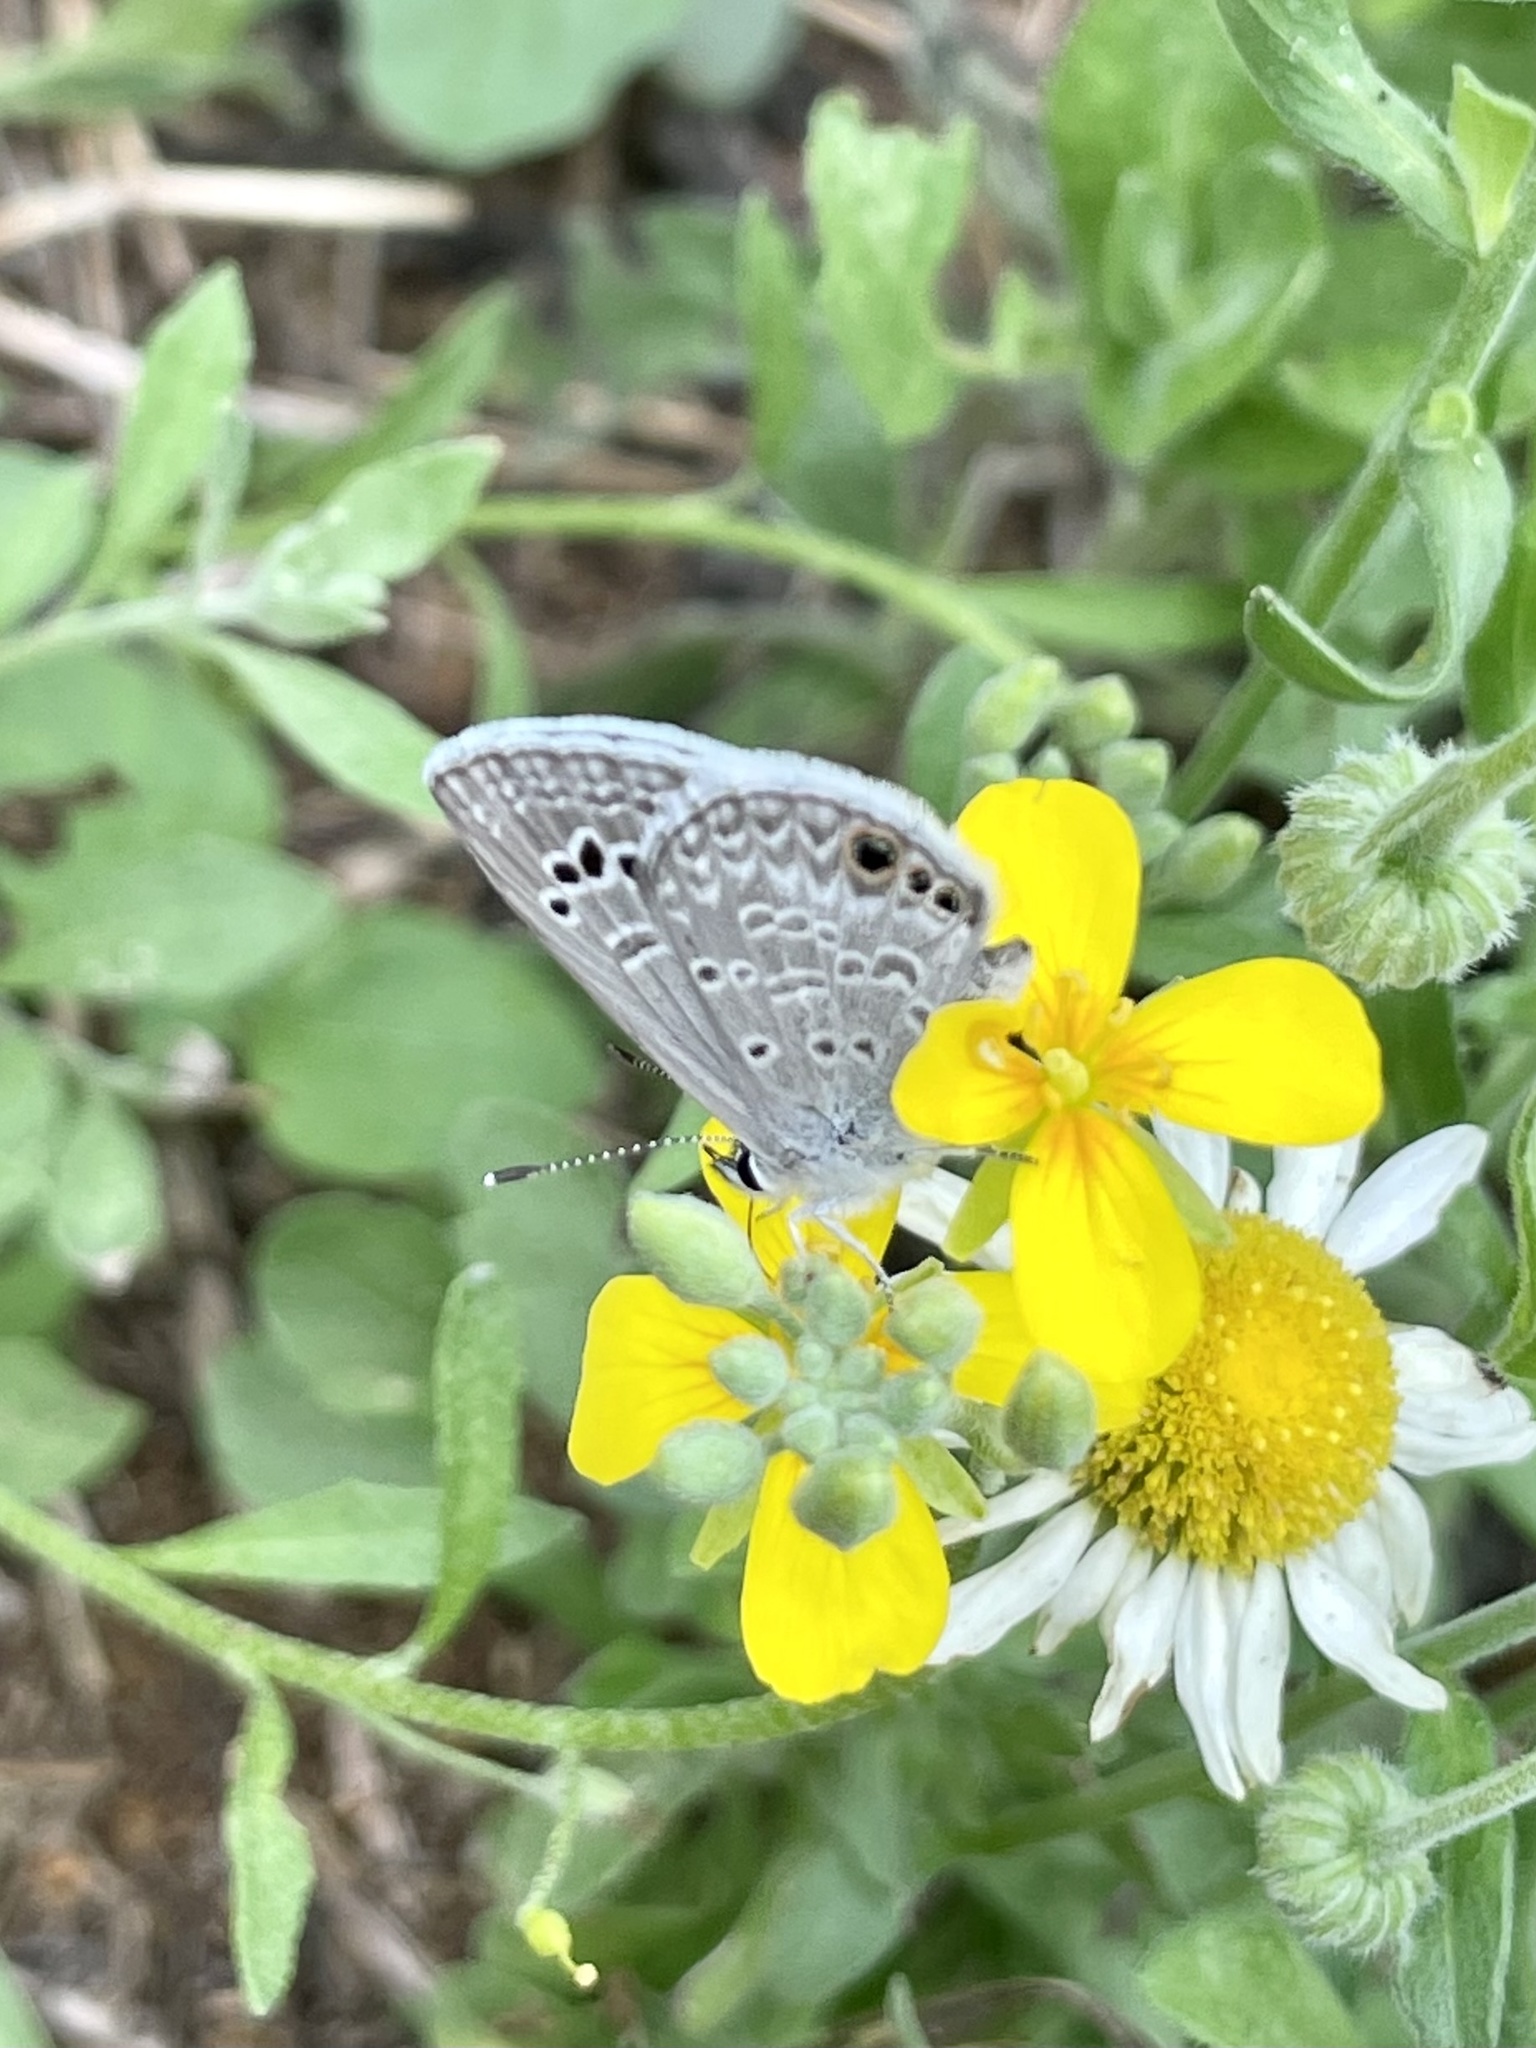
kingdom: Animalia
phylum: Arthropoda
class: Insecta
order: Lepidoptera
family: Lycaenidae
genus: Echinargus
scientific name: Echinargus isola
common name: Reakirt's blue
